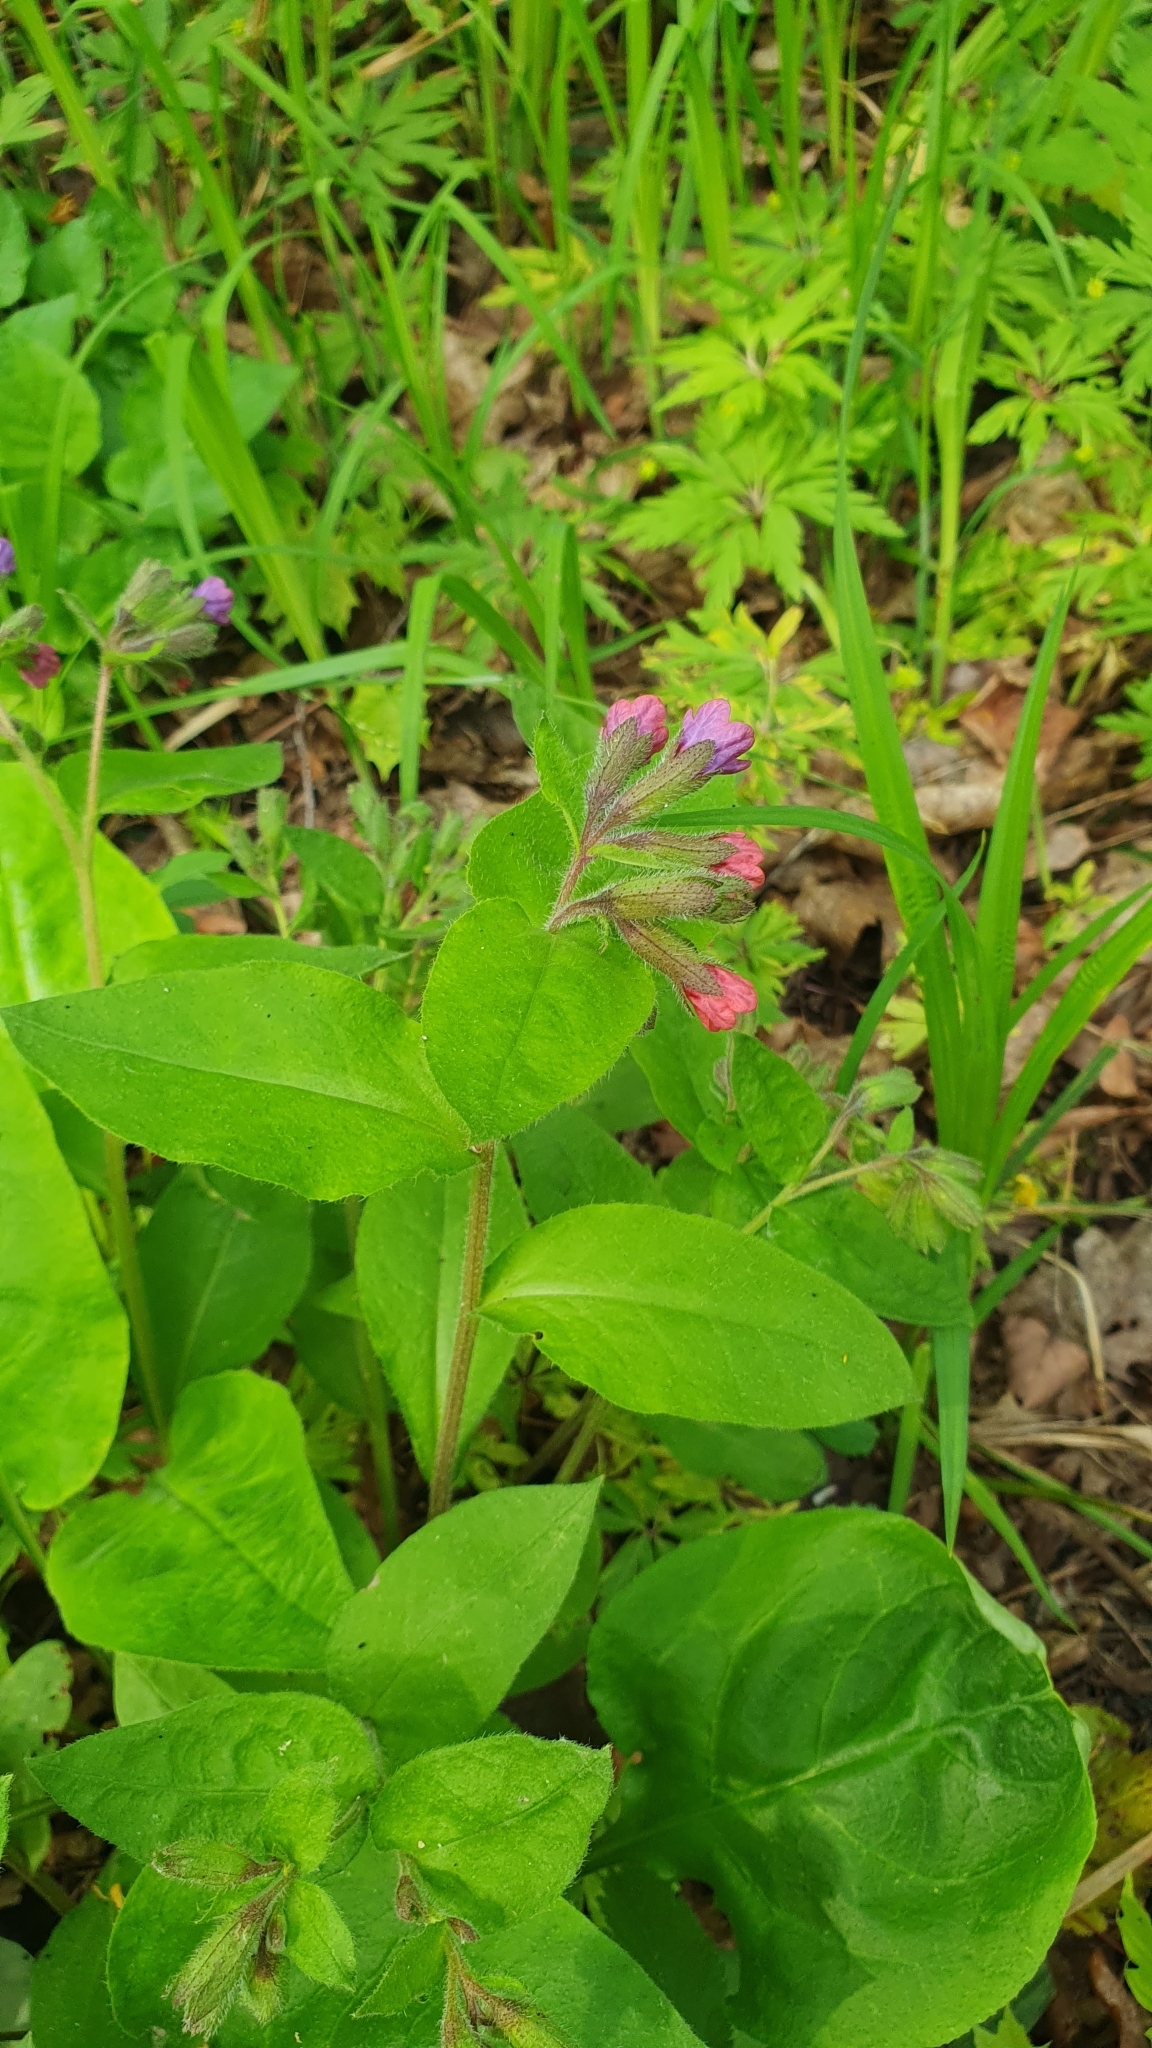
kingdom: Plantae
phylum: Tracheophyta
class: Magnoliopsida
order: Boraginales
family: Boraginaceae
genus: Pulmonaria
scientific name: Pulmonaria obscura
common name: Suffolk lungwort
